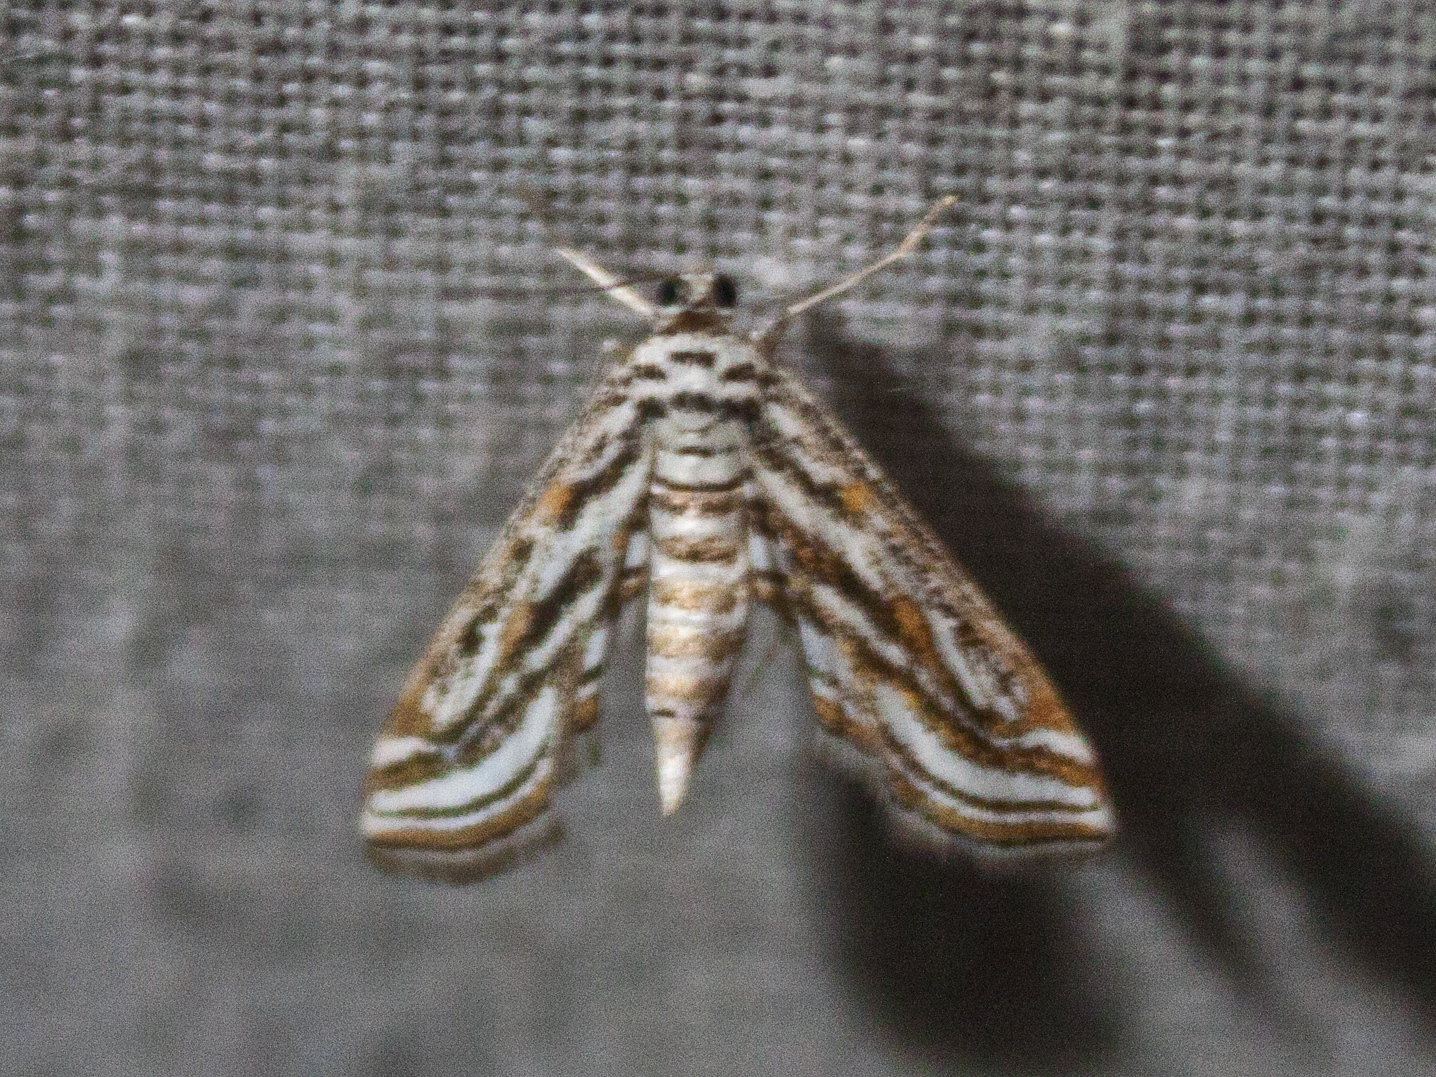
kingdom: Animalia
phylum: Arthropoda
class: Insecta
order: Lepidoptera
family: Crambidae
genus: Parapoynx
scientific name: Parapoynx fluctuosalis
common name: Moth
